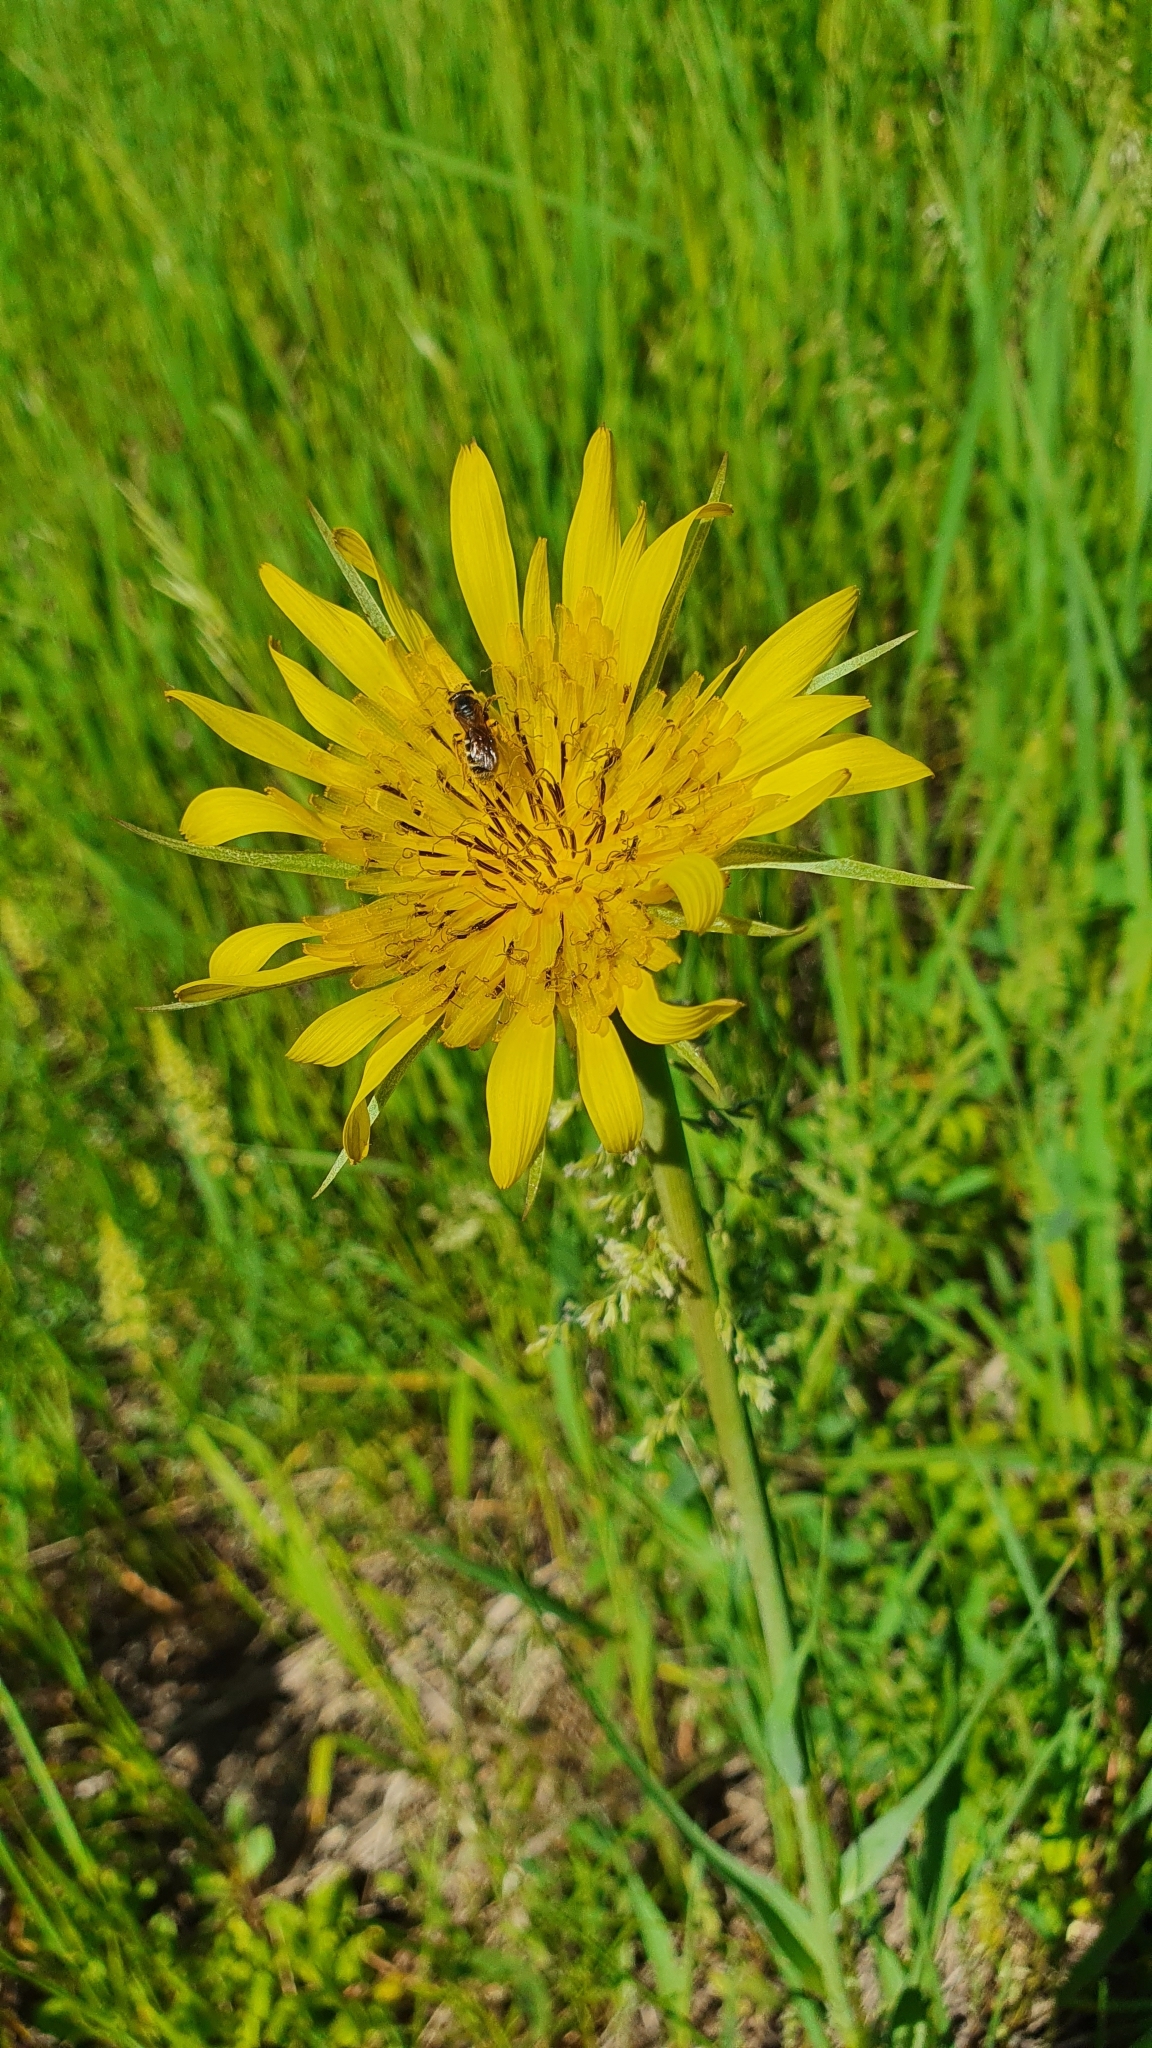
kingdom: Plantae
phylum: Tracheophyta
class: Magnoliopsida
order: Asterales
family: Asteraceae
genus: Tragopogon
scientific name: Tragopogon pratensis
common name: Goat's-beard
